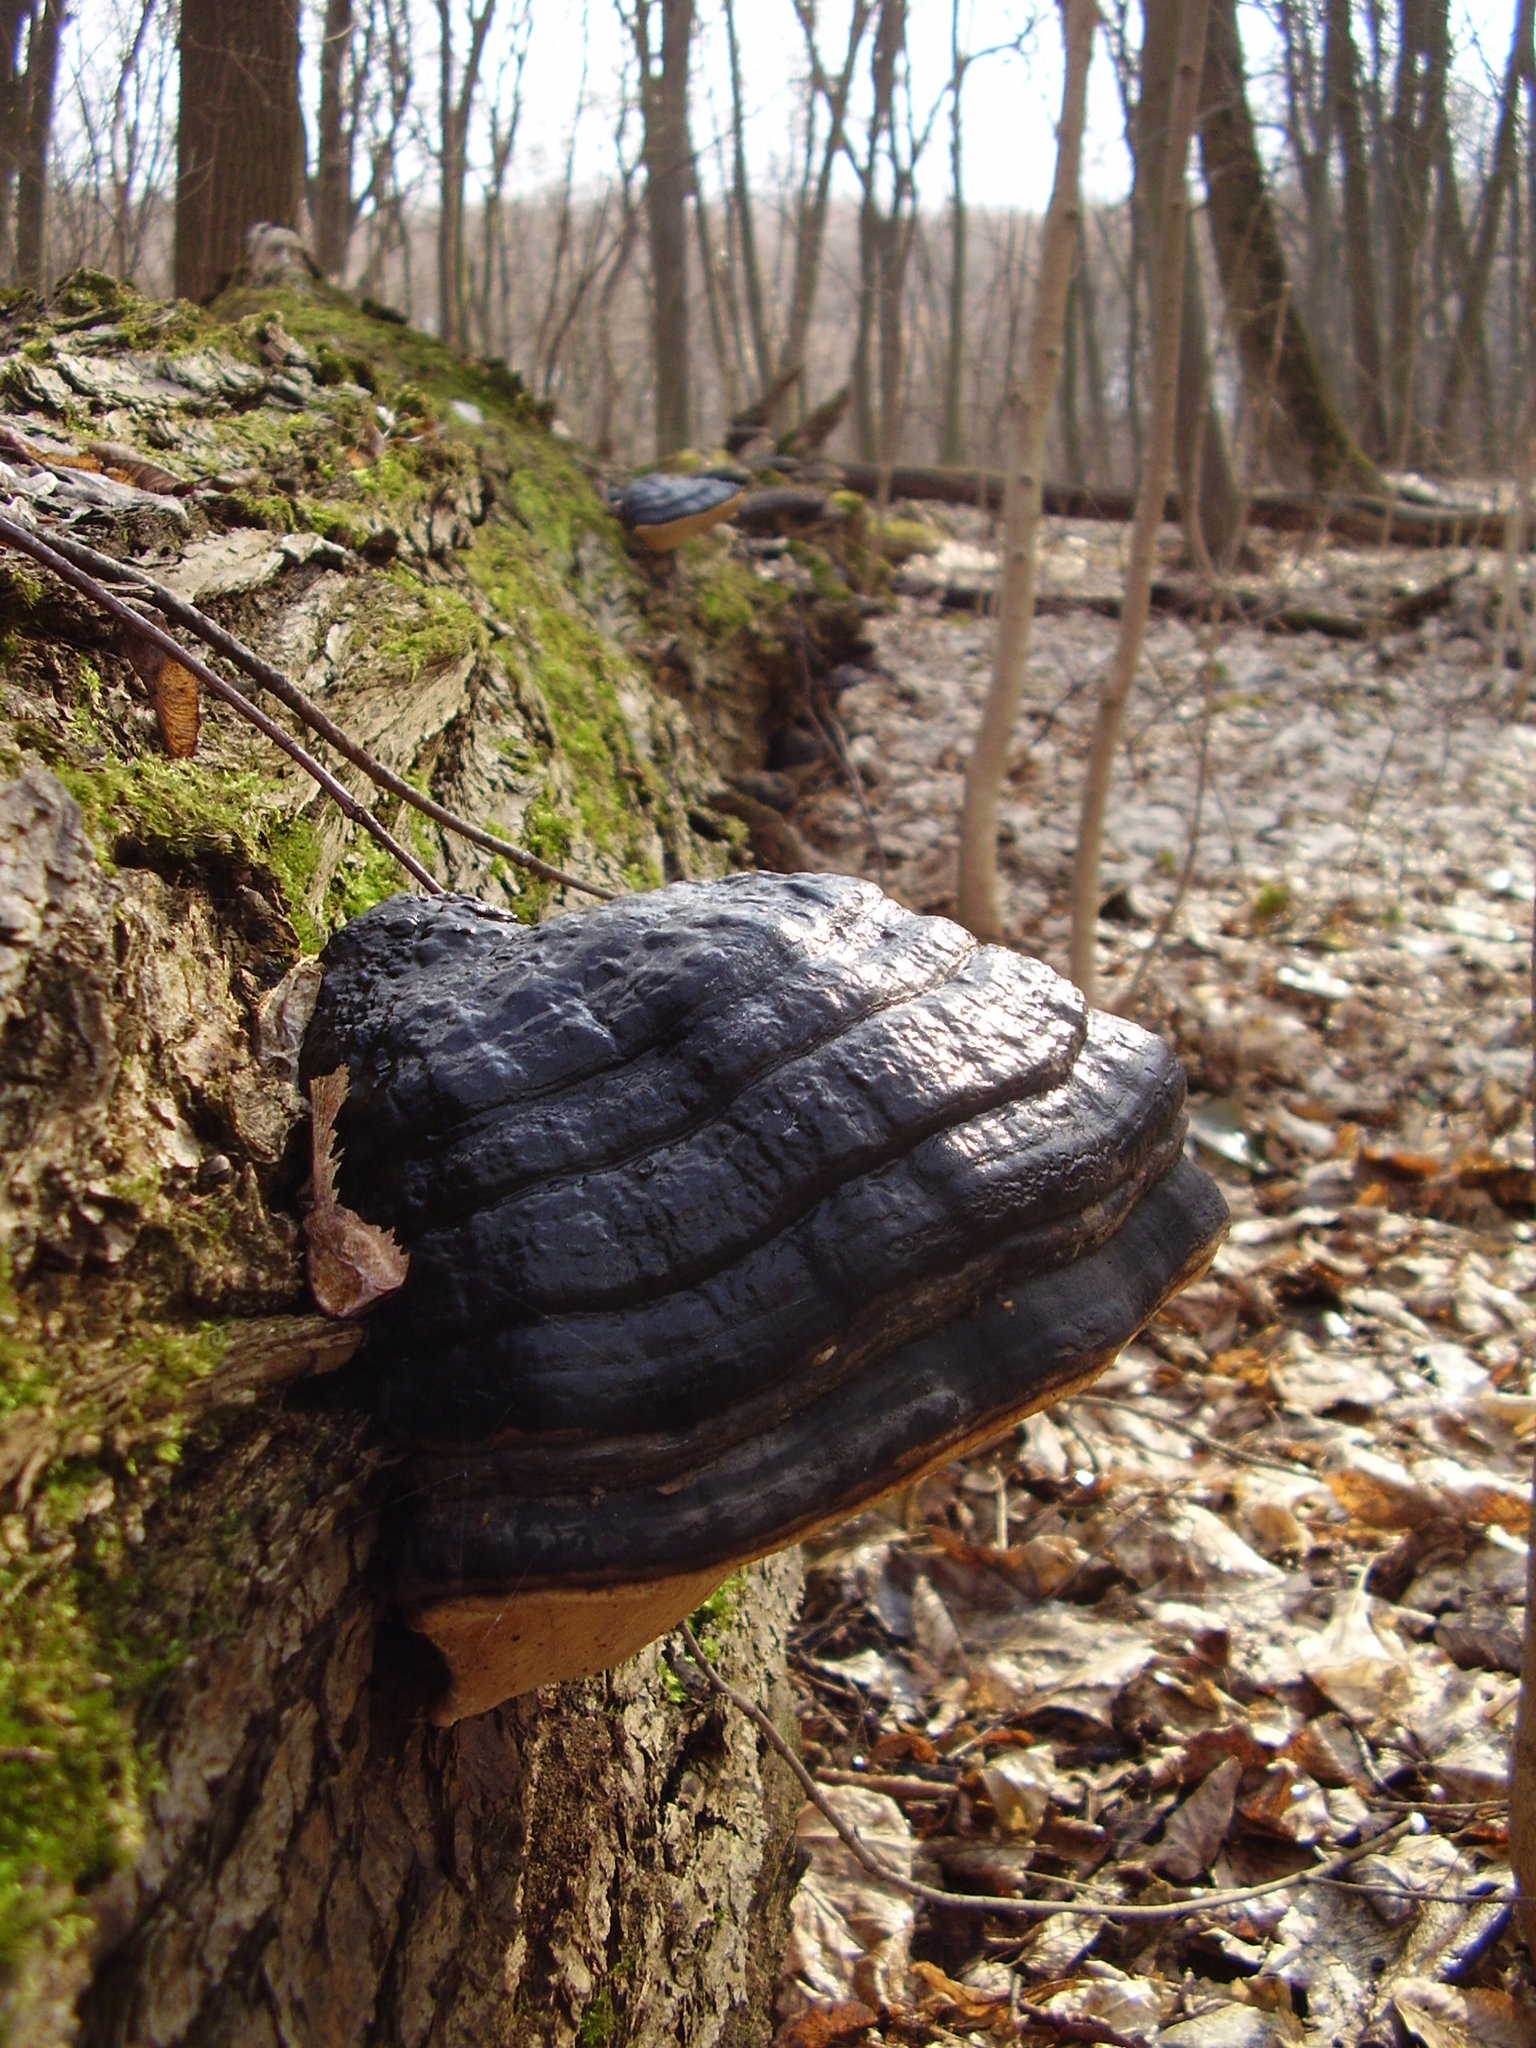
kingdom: Fungi
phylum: Basidiomycota
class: Agaricomycetes
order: Polyporales
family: Fomitopsidaceae
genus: Fomitopsis
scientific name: Fomitopsis pinicola
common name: Red-belted bracket
